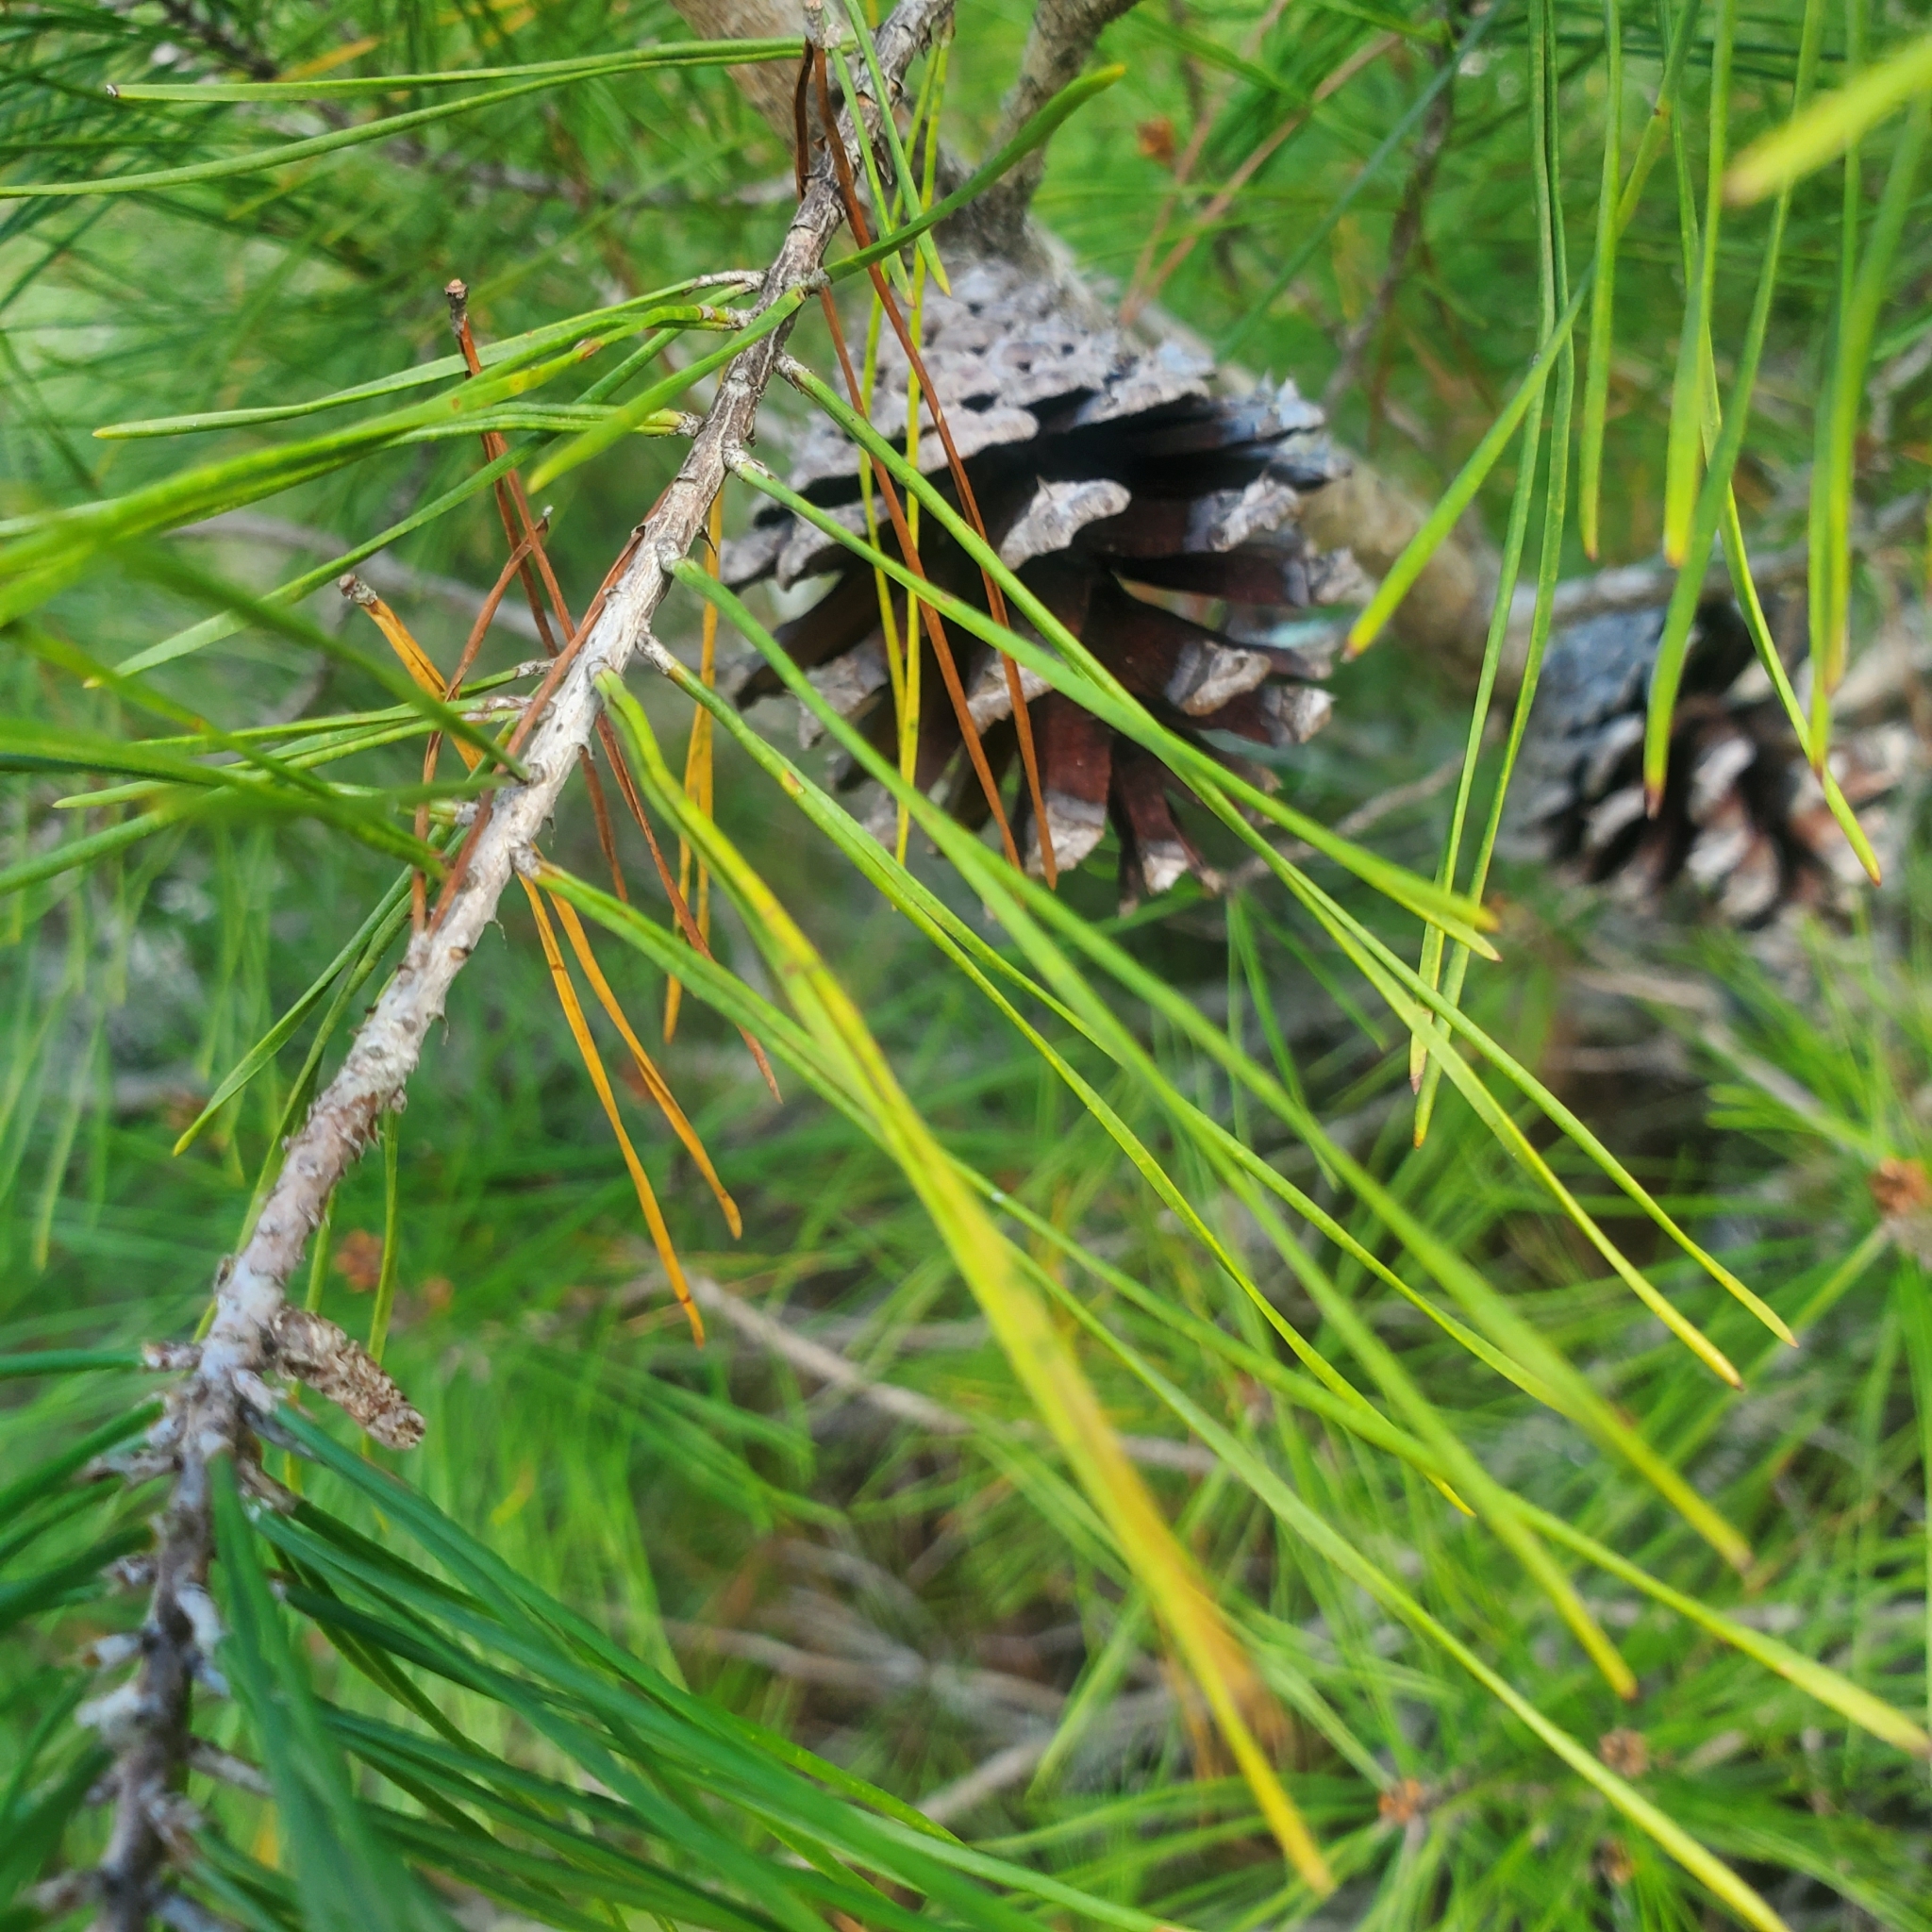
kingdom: Plantae
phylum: Tracheophyta
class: Pinopsida
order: Pinales
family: Pinaceae
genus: Pinus
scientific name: Pinus clausa
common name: Sand pine
